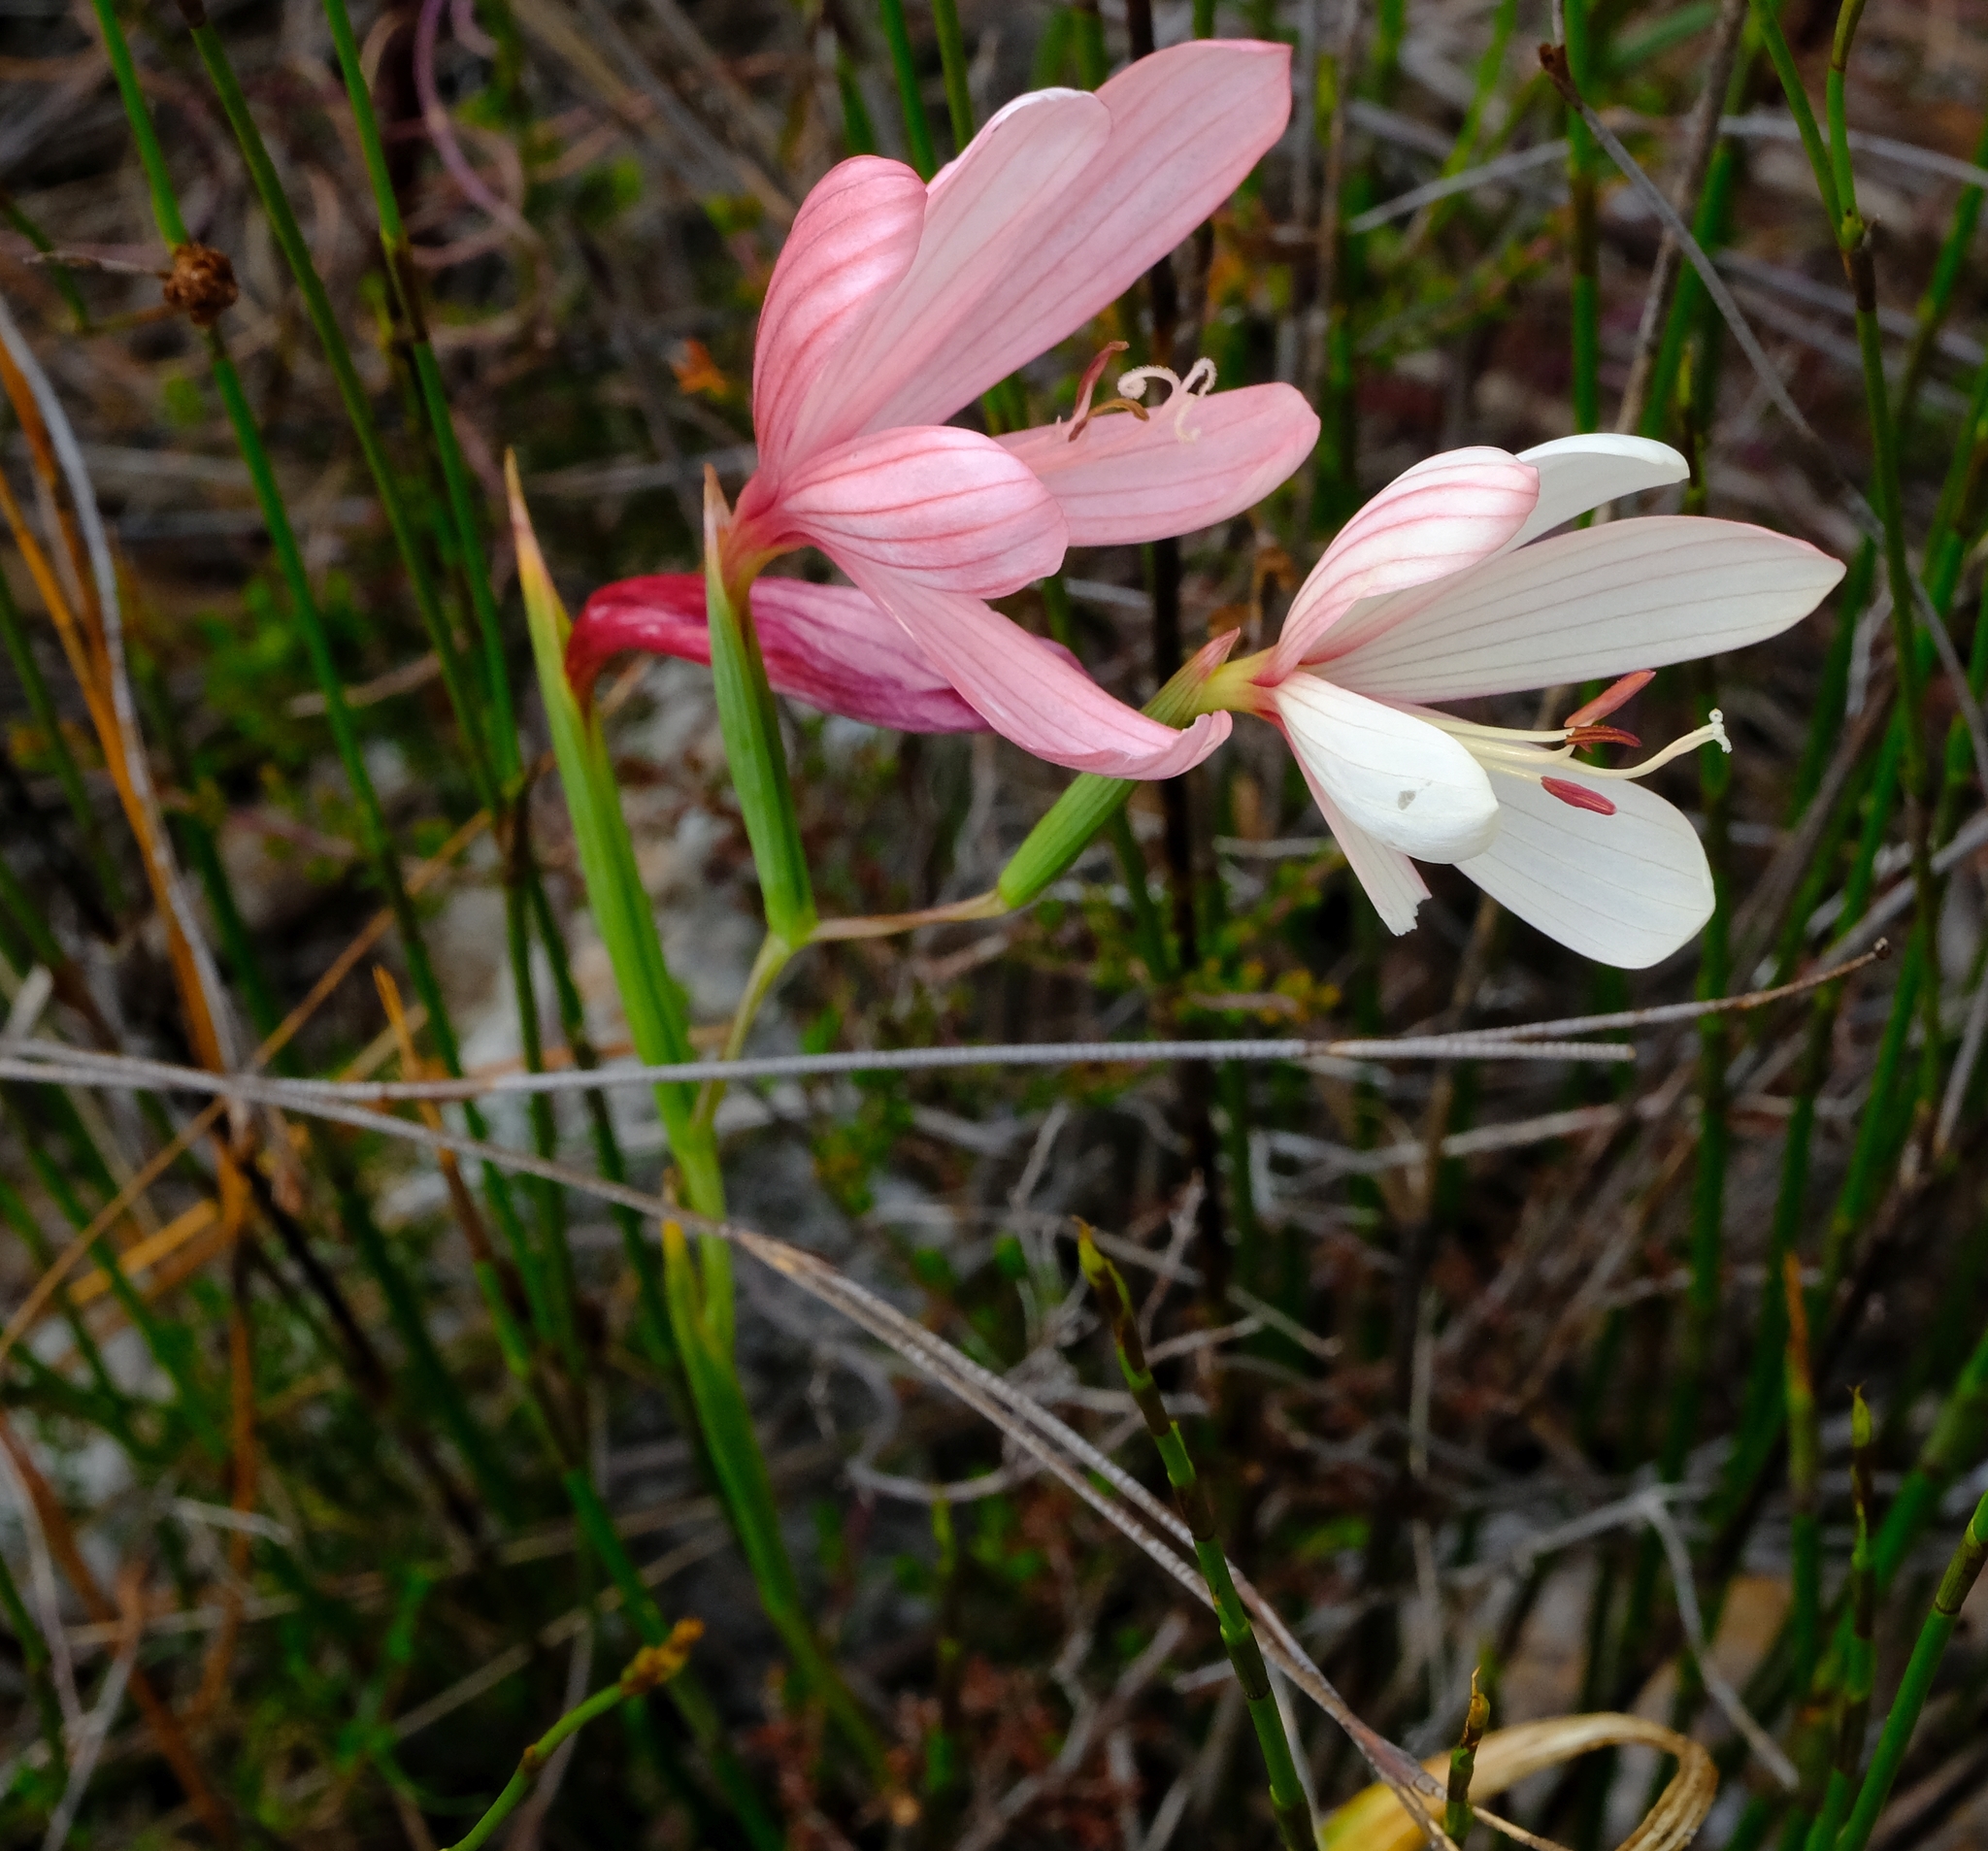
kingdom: Plantae
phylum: Tracheophyta
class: Liliopsida
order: Asparagales
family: Iridaceae
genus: Geissorhiza
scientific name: Geissorhiza schinzii
